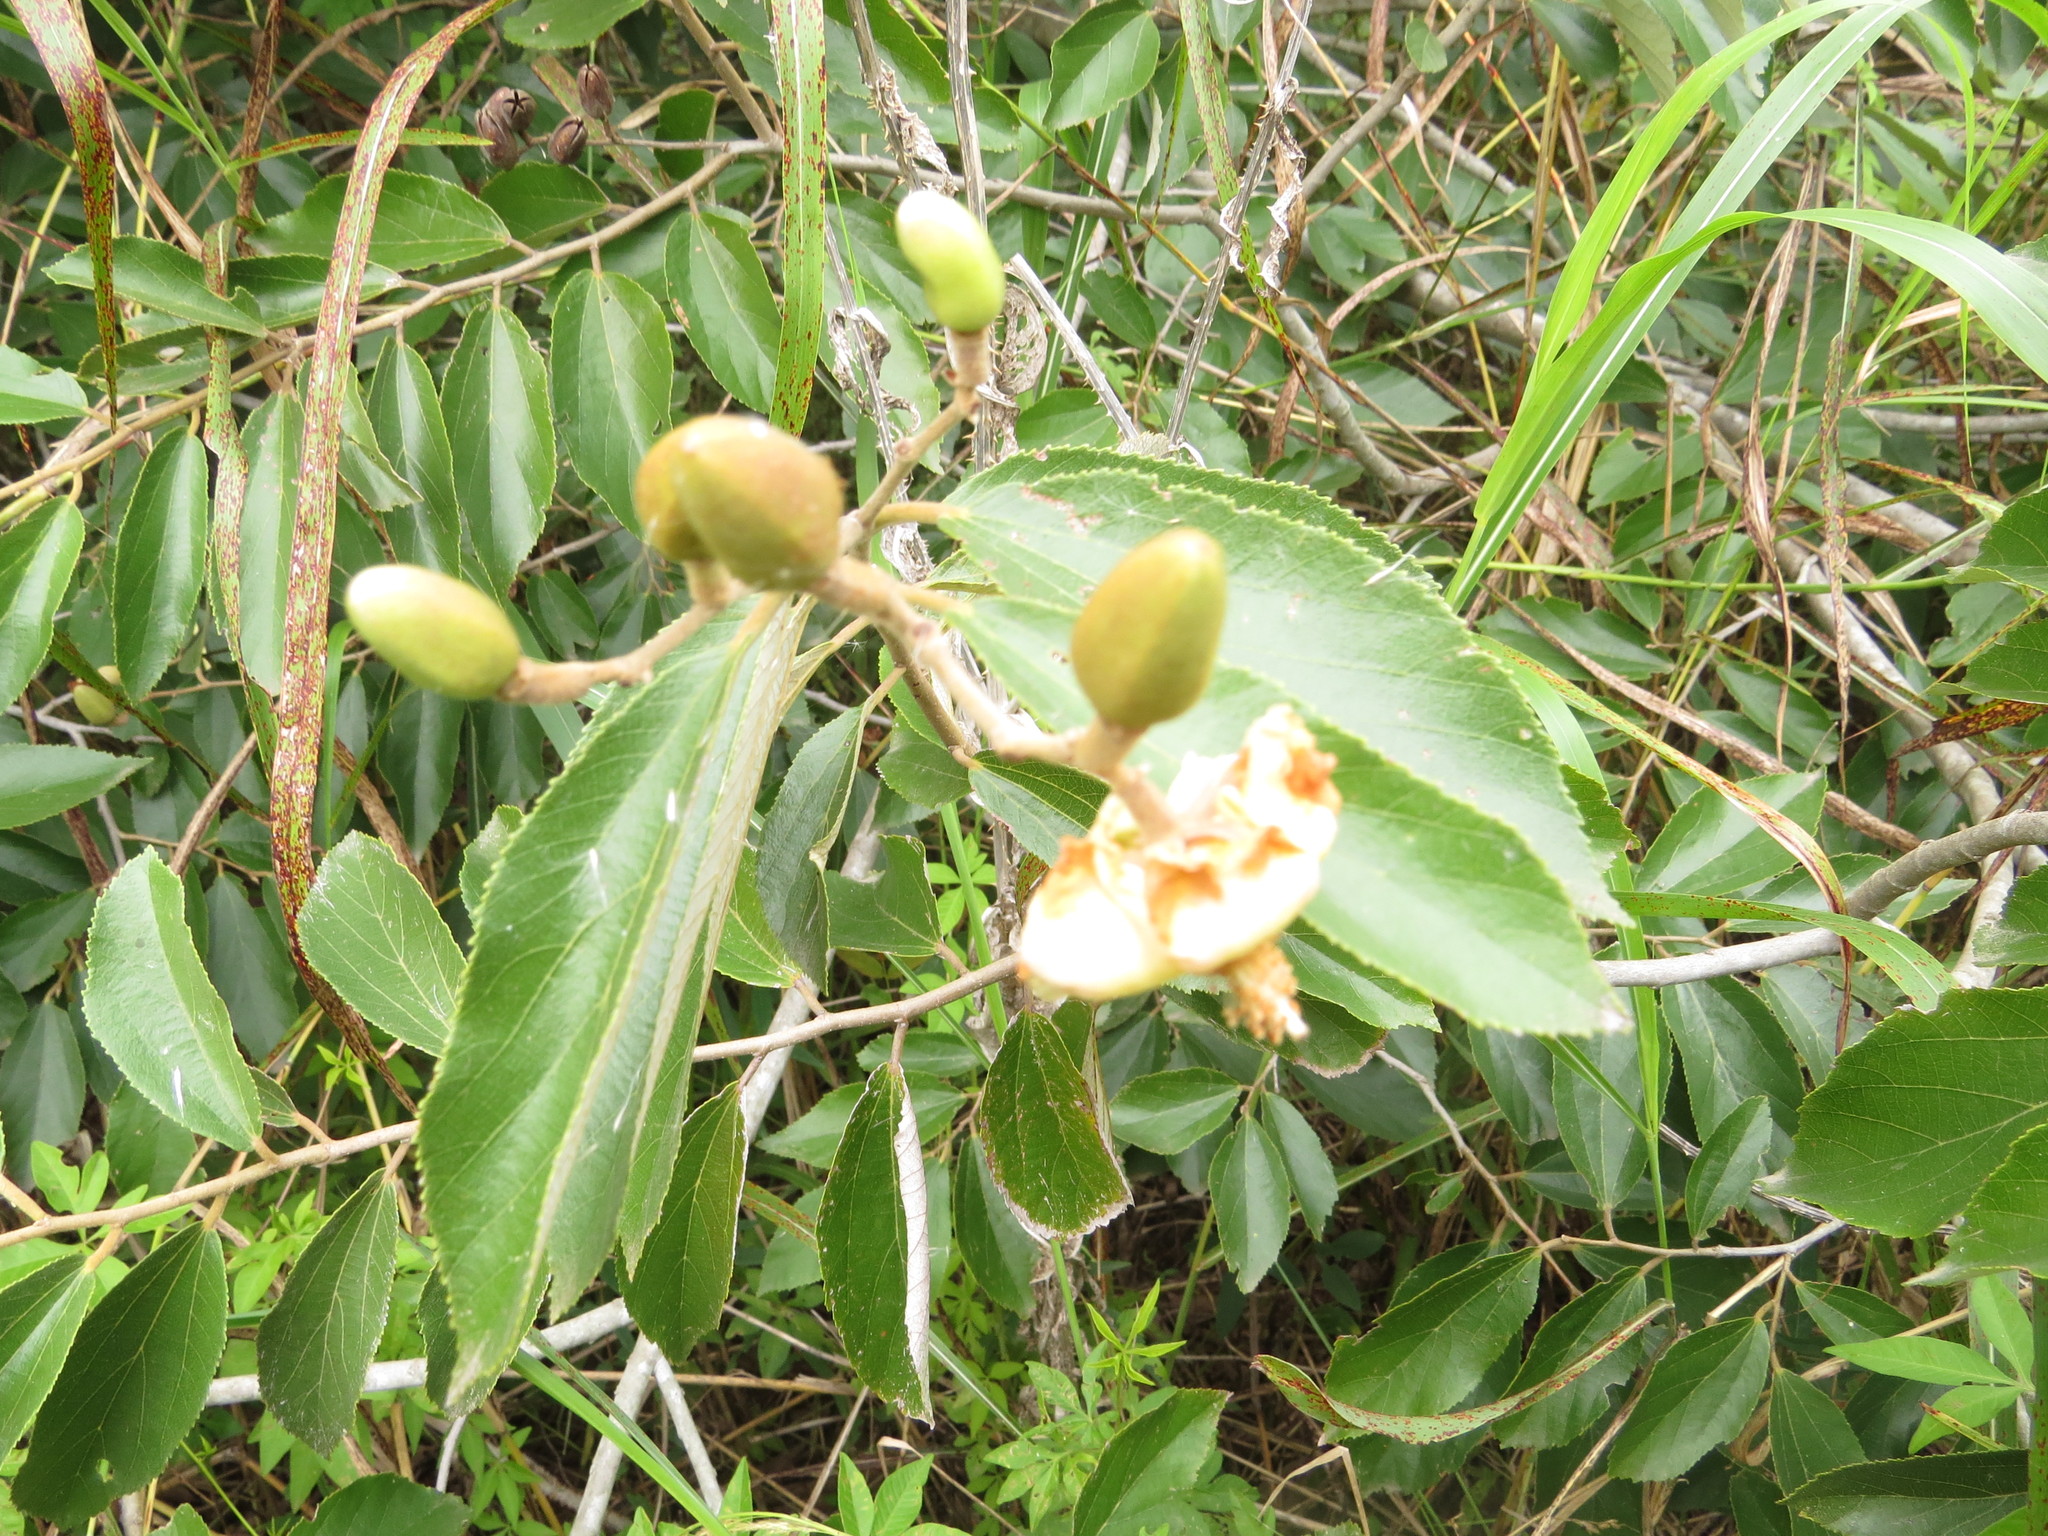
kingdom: Plantae
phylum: Tracheophyta
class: Magnoliopsida
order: Malvales
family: Malvaceae
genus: Luehea
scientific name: Luehea divaricata
